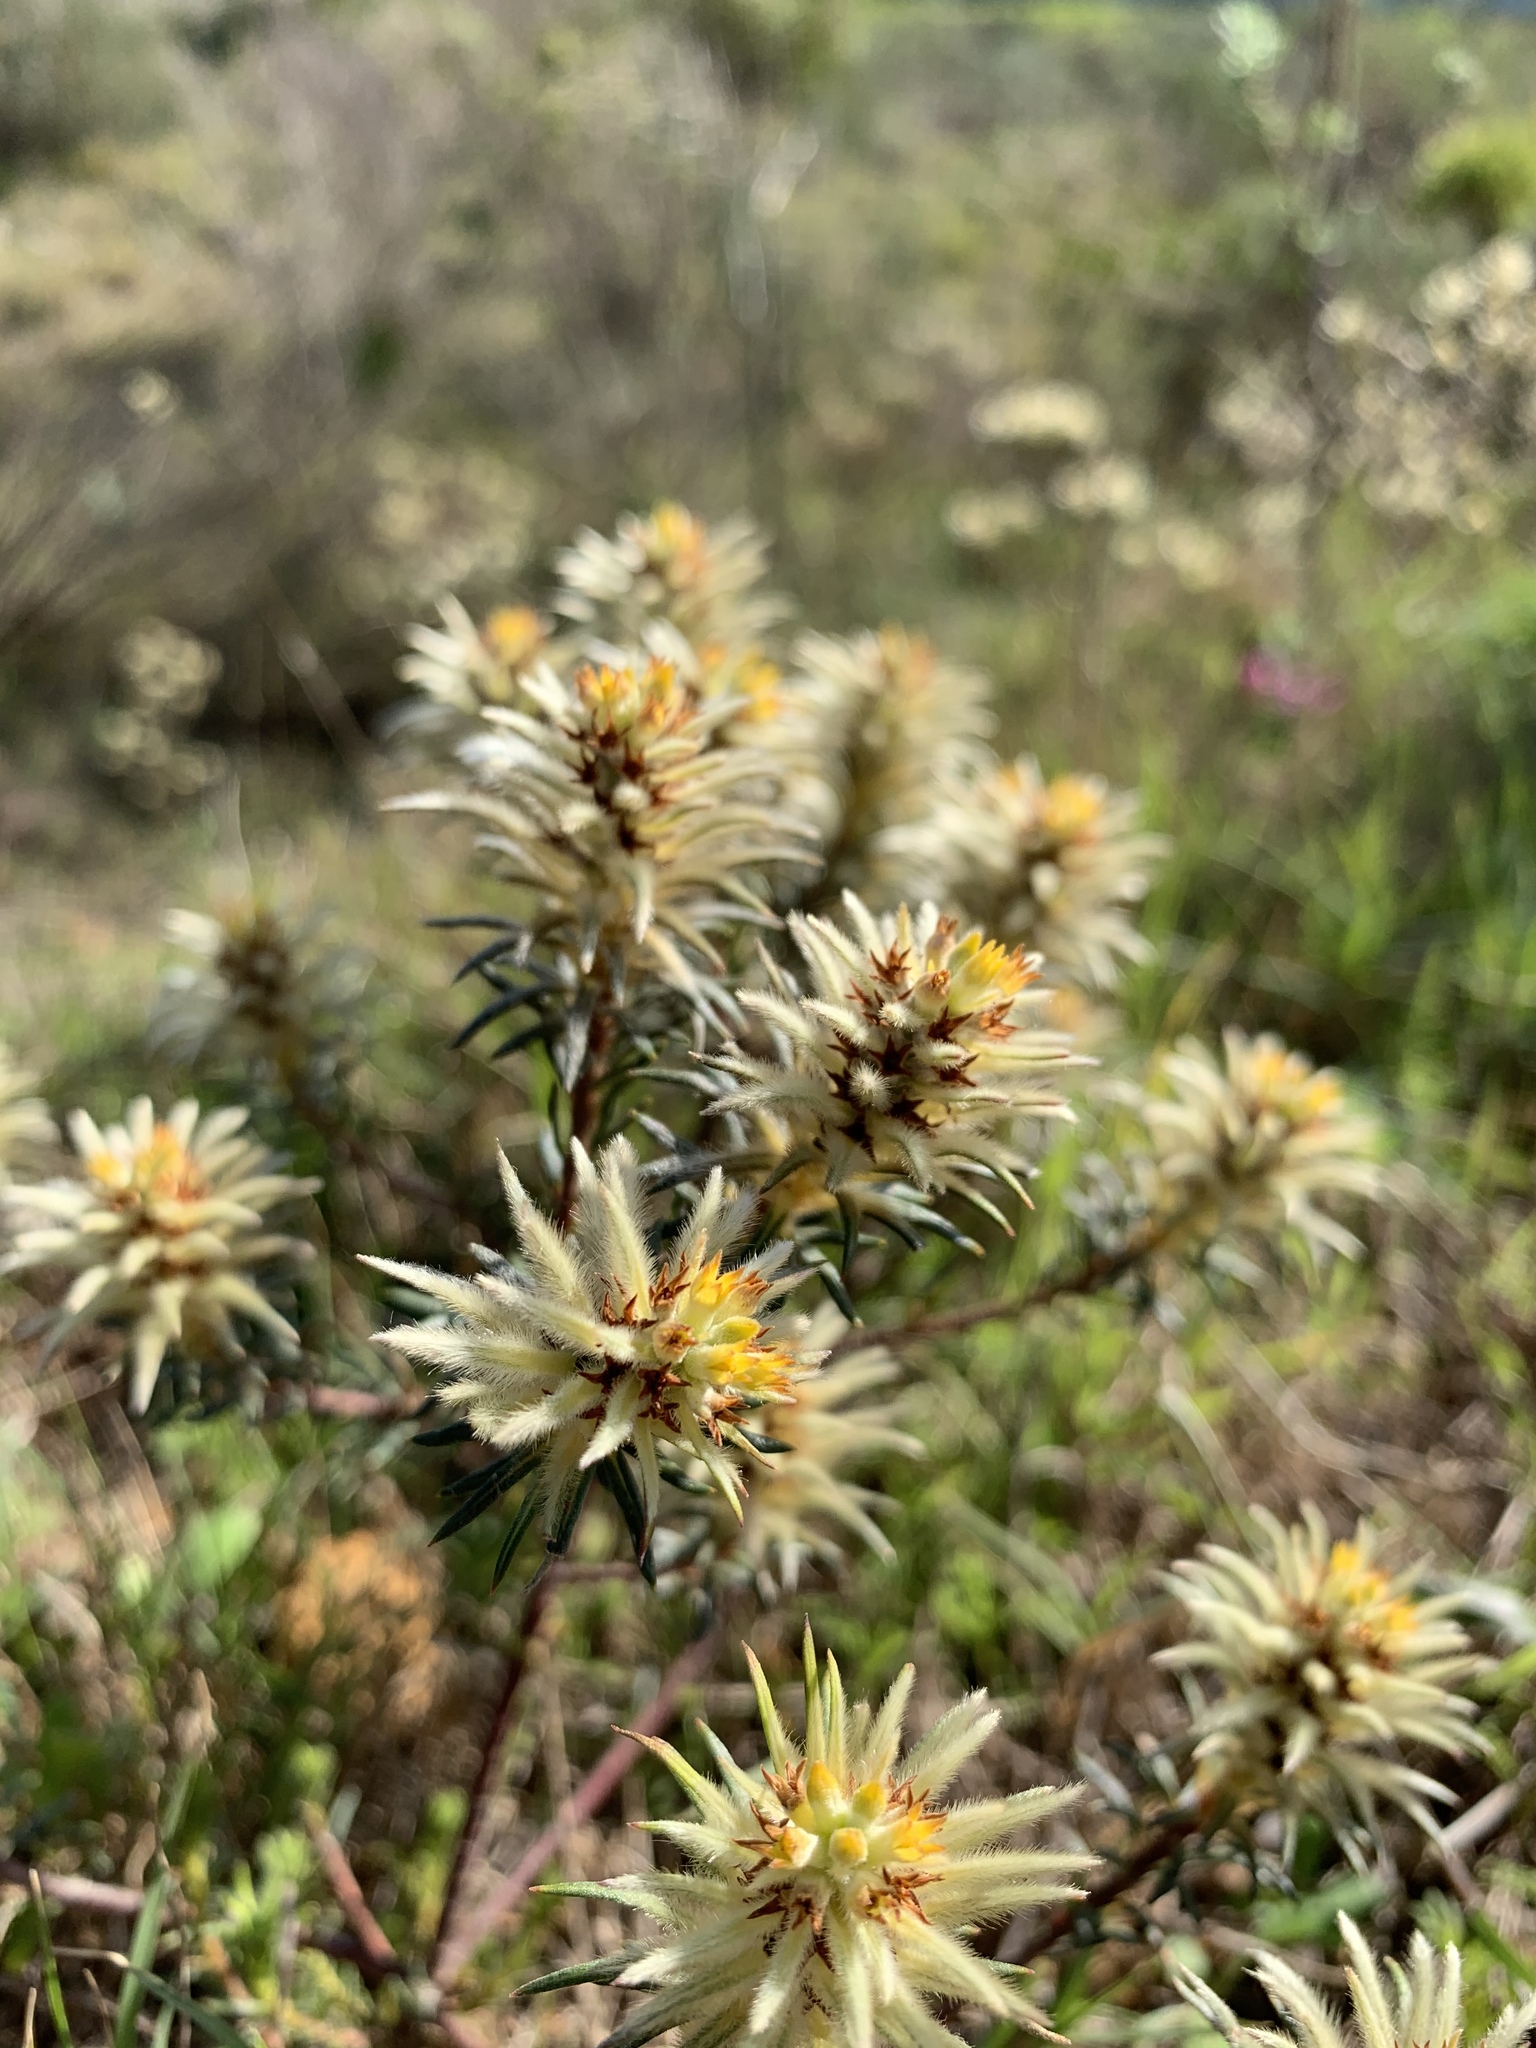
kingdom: Plantae
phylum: Tracheophyta
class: Magnoliopsida
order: Rosales
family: Rhamnaceae
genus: Phylica
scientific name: Phylica plumosa
